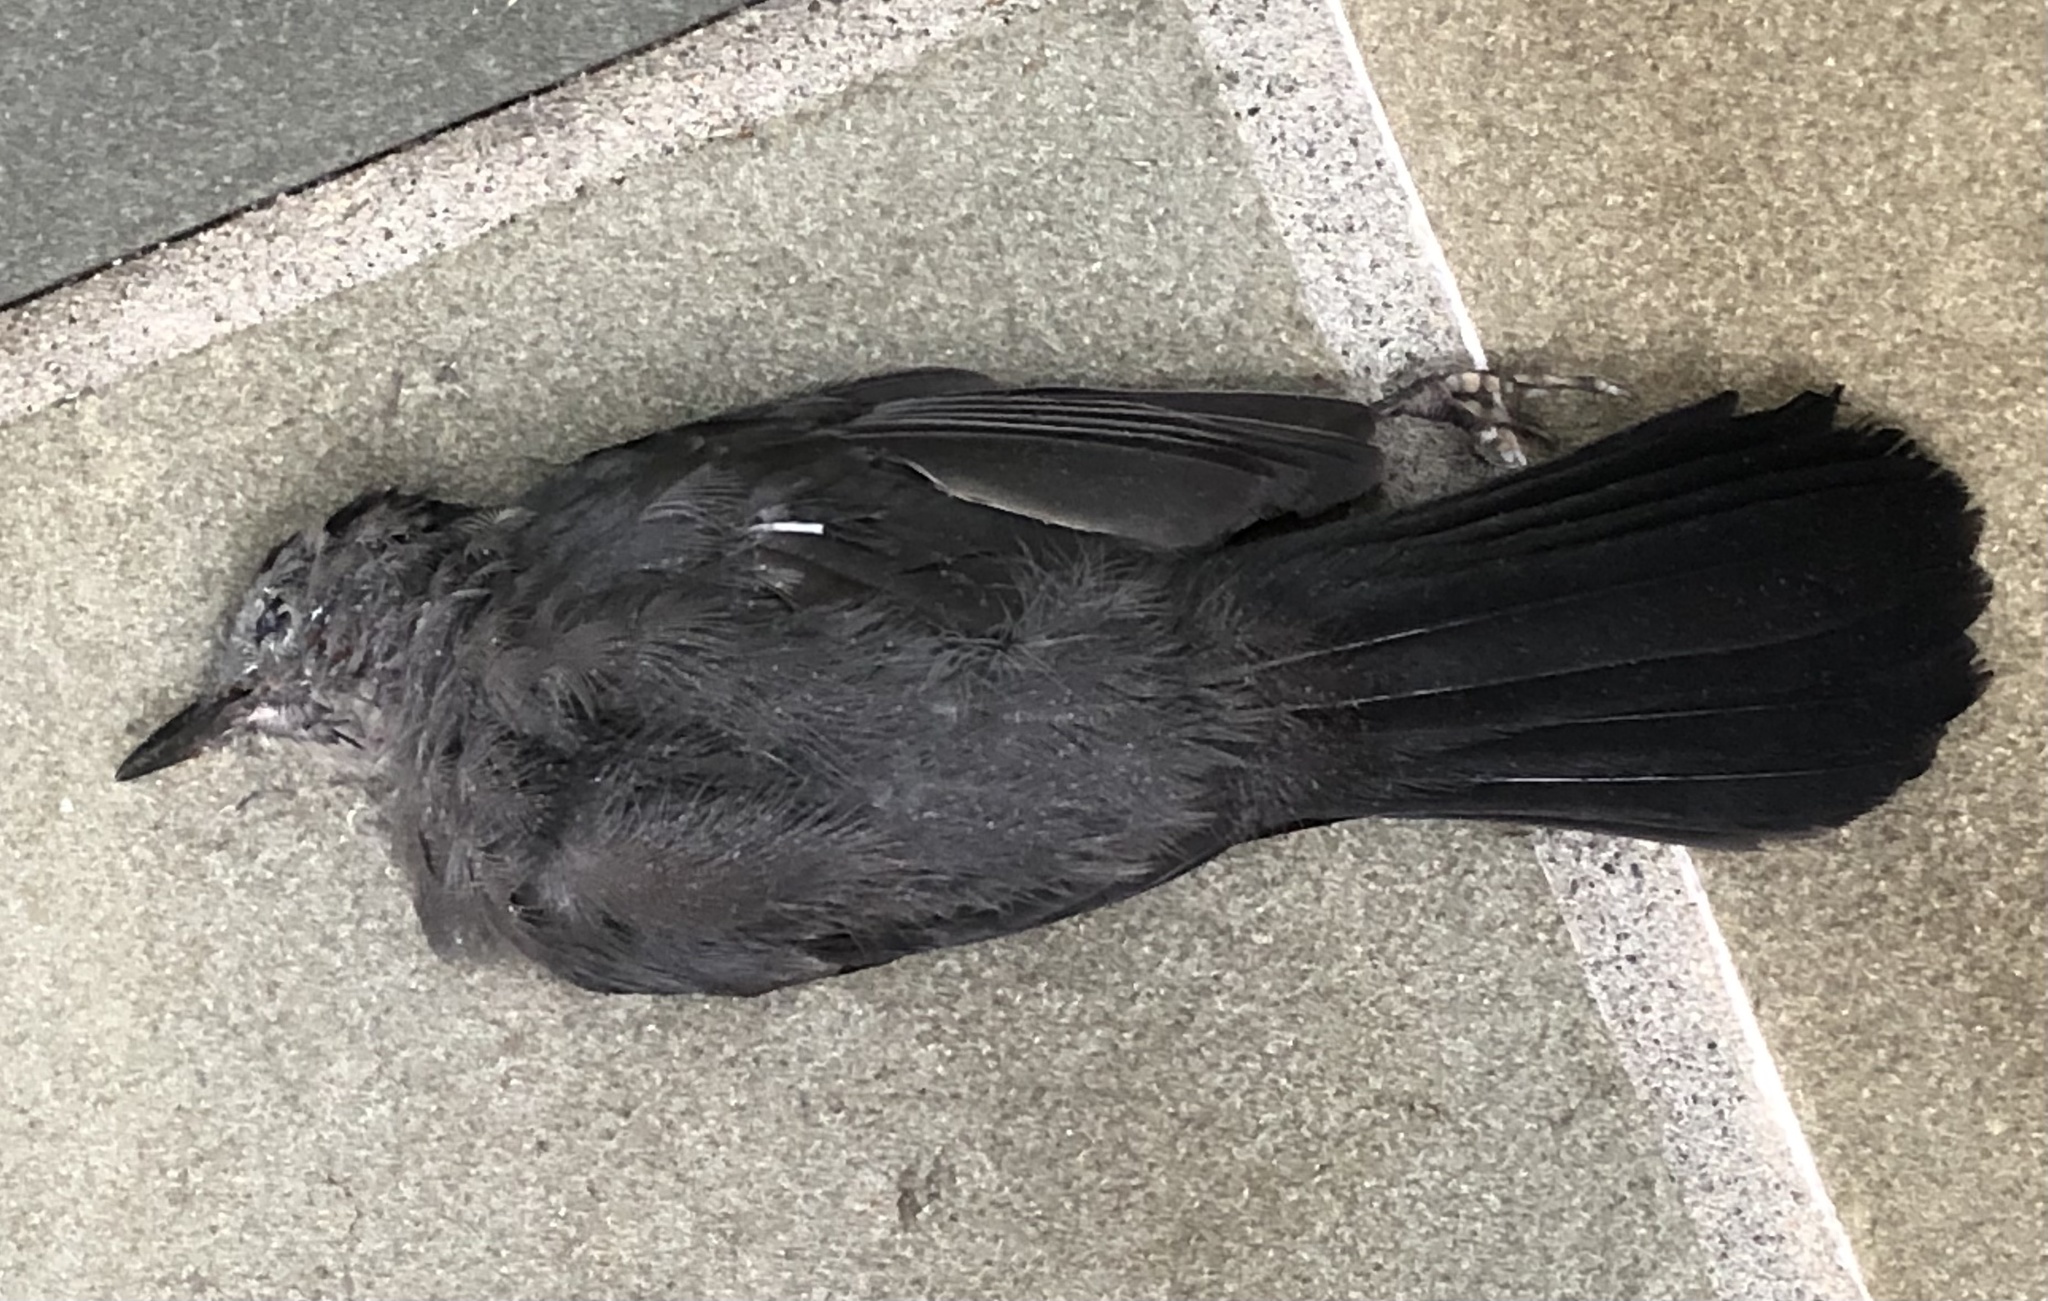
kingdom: Animalia
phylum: Chordata
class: Aves
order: Passeriformes
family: Mimidae
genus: Dumetella
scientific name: Dumetella carolinensis
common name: Gray catbird
